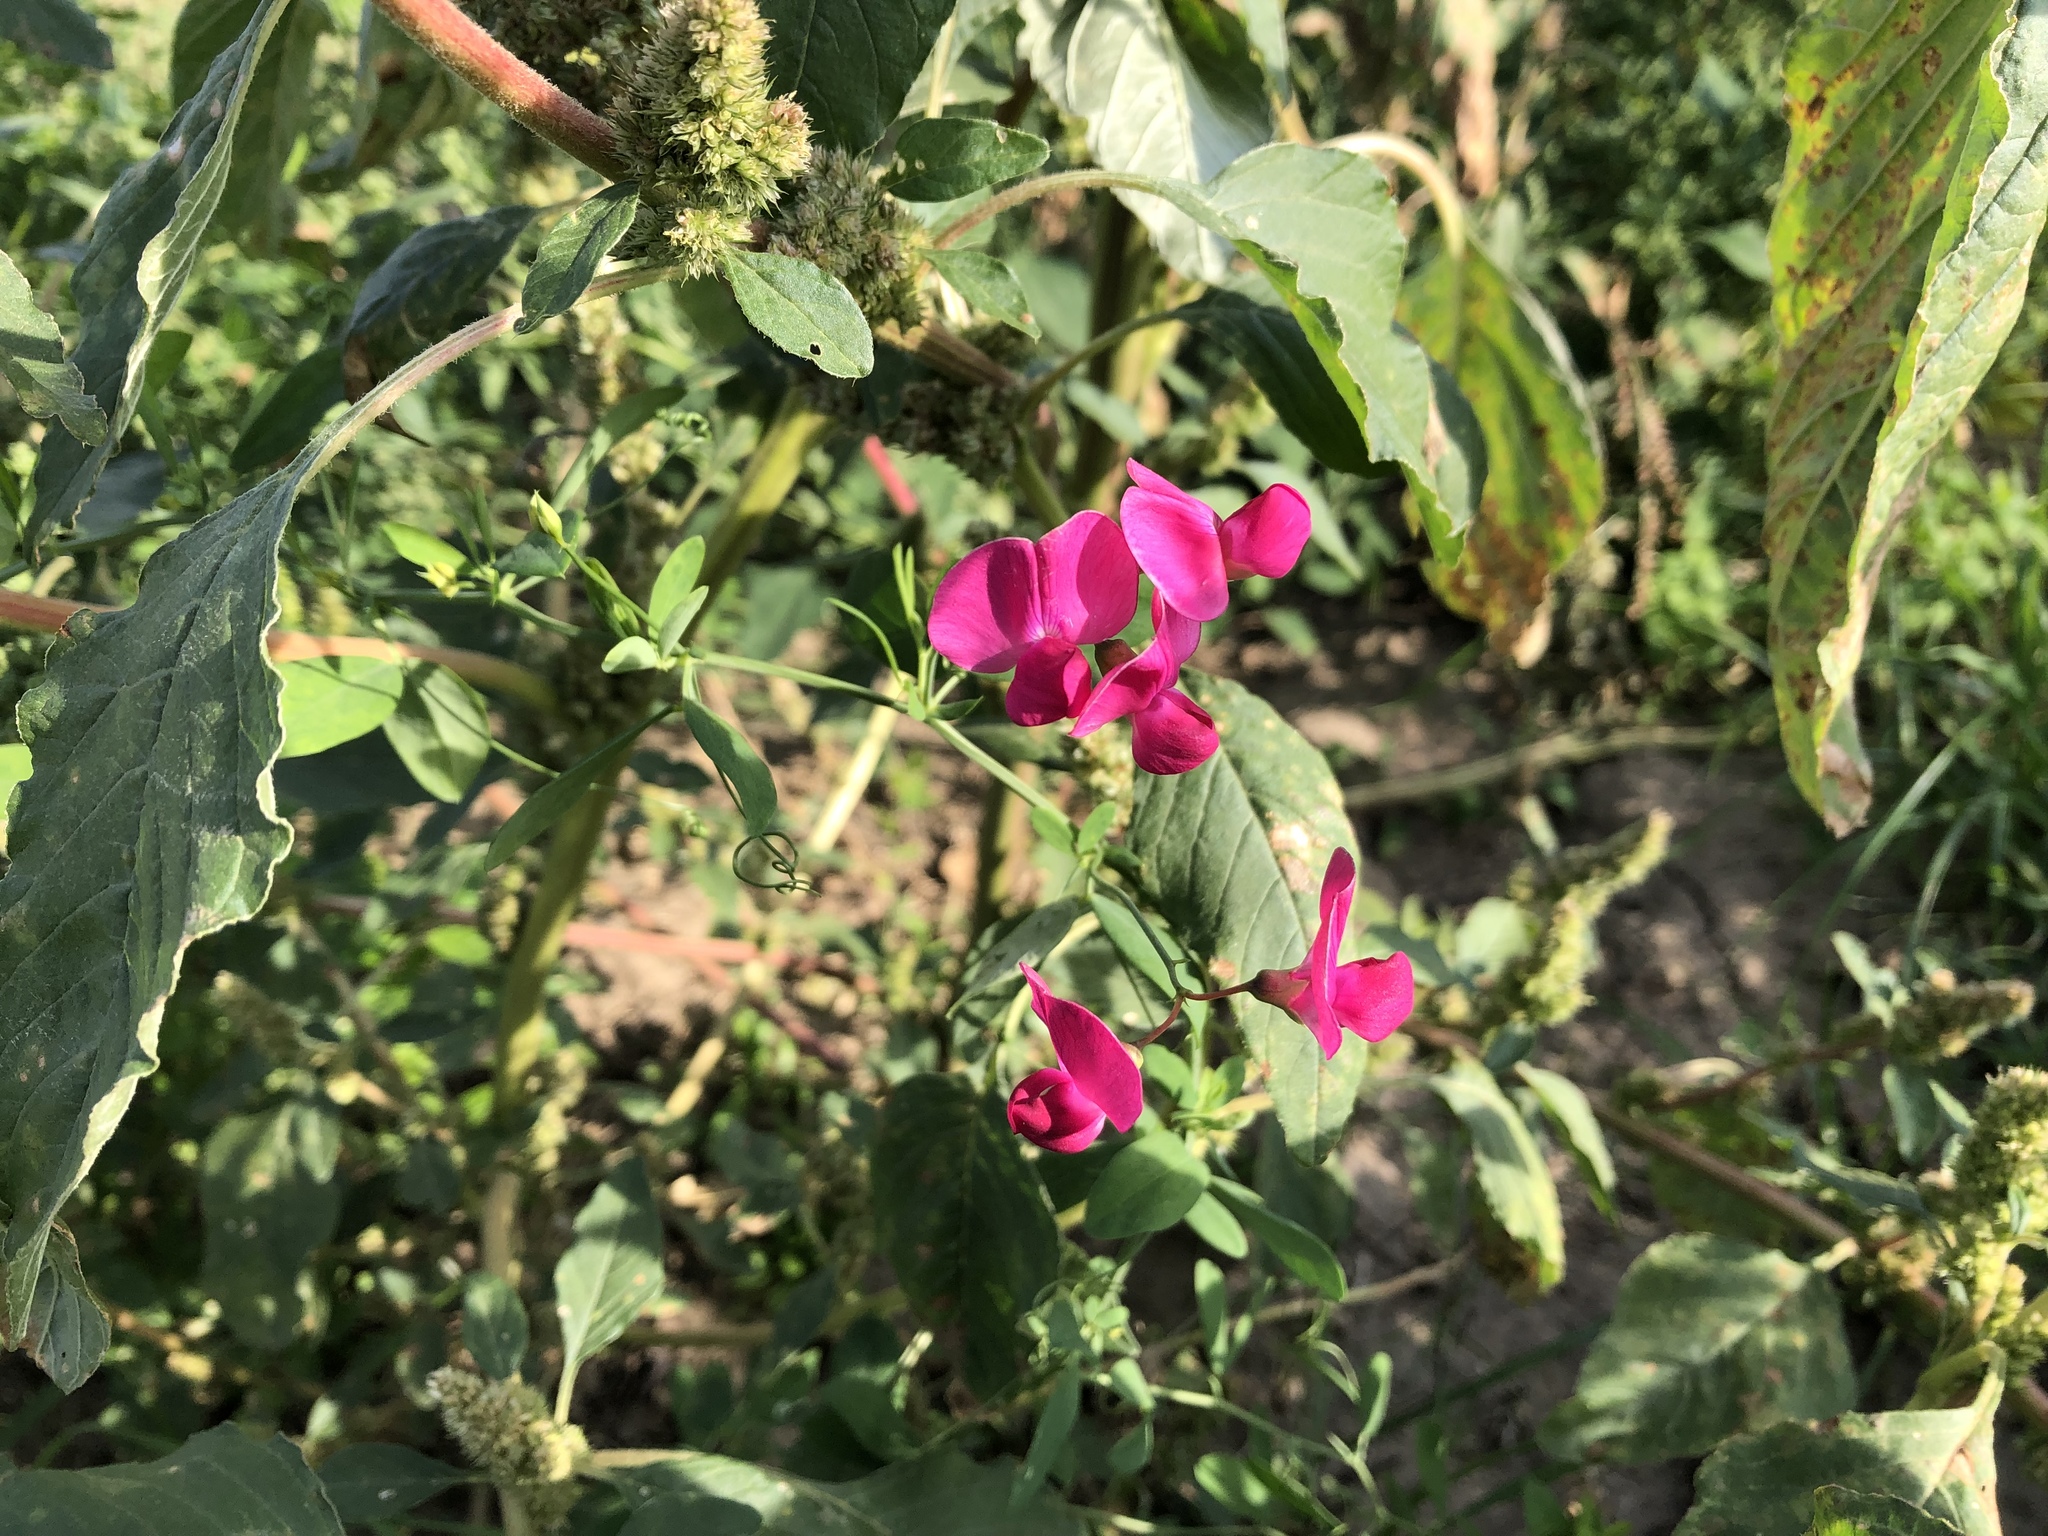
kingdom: Plantae
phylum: Tracheophyta
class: Magnoliopsida
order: Fabales
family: Fabaceae
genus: Lathyrus
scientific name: Lathyrus tuberosus
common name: Tuberous pea
